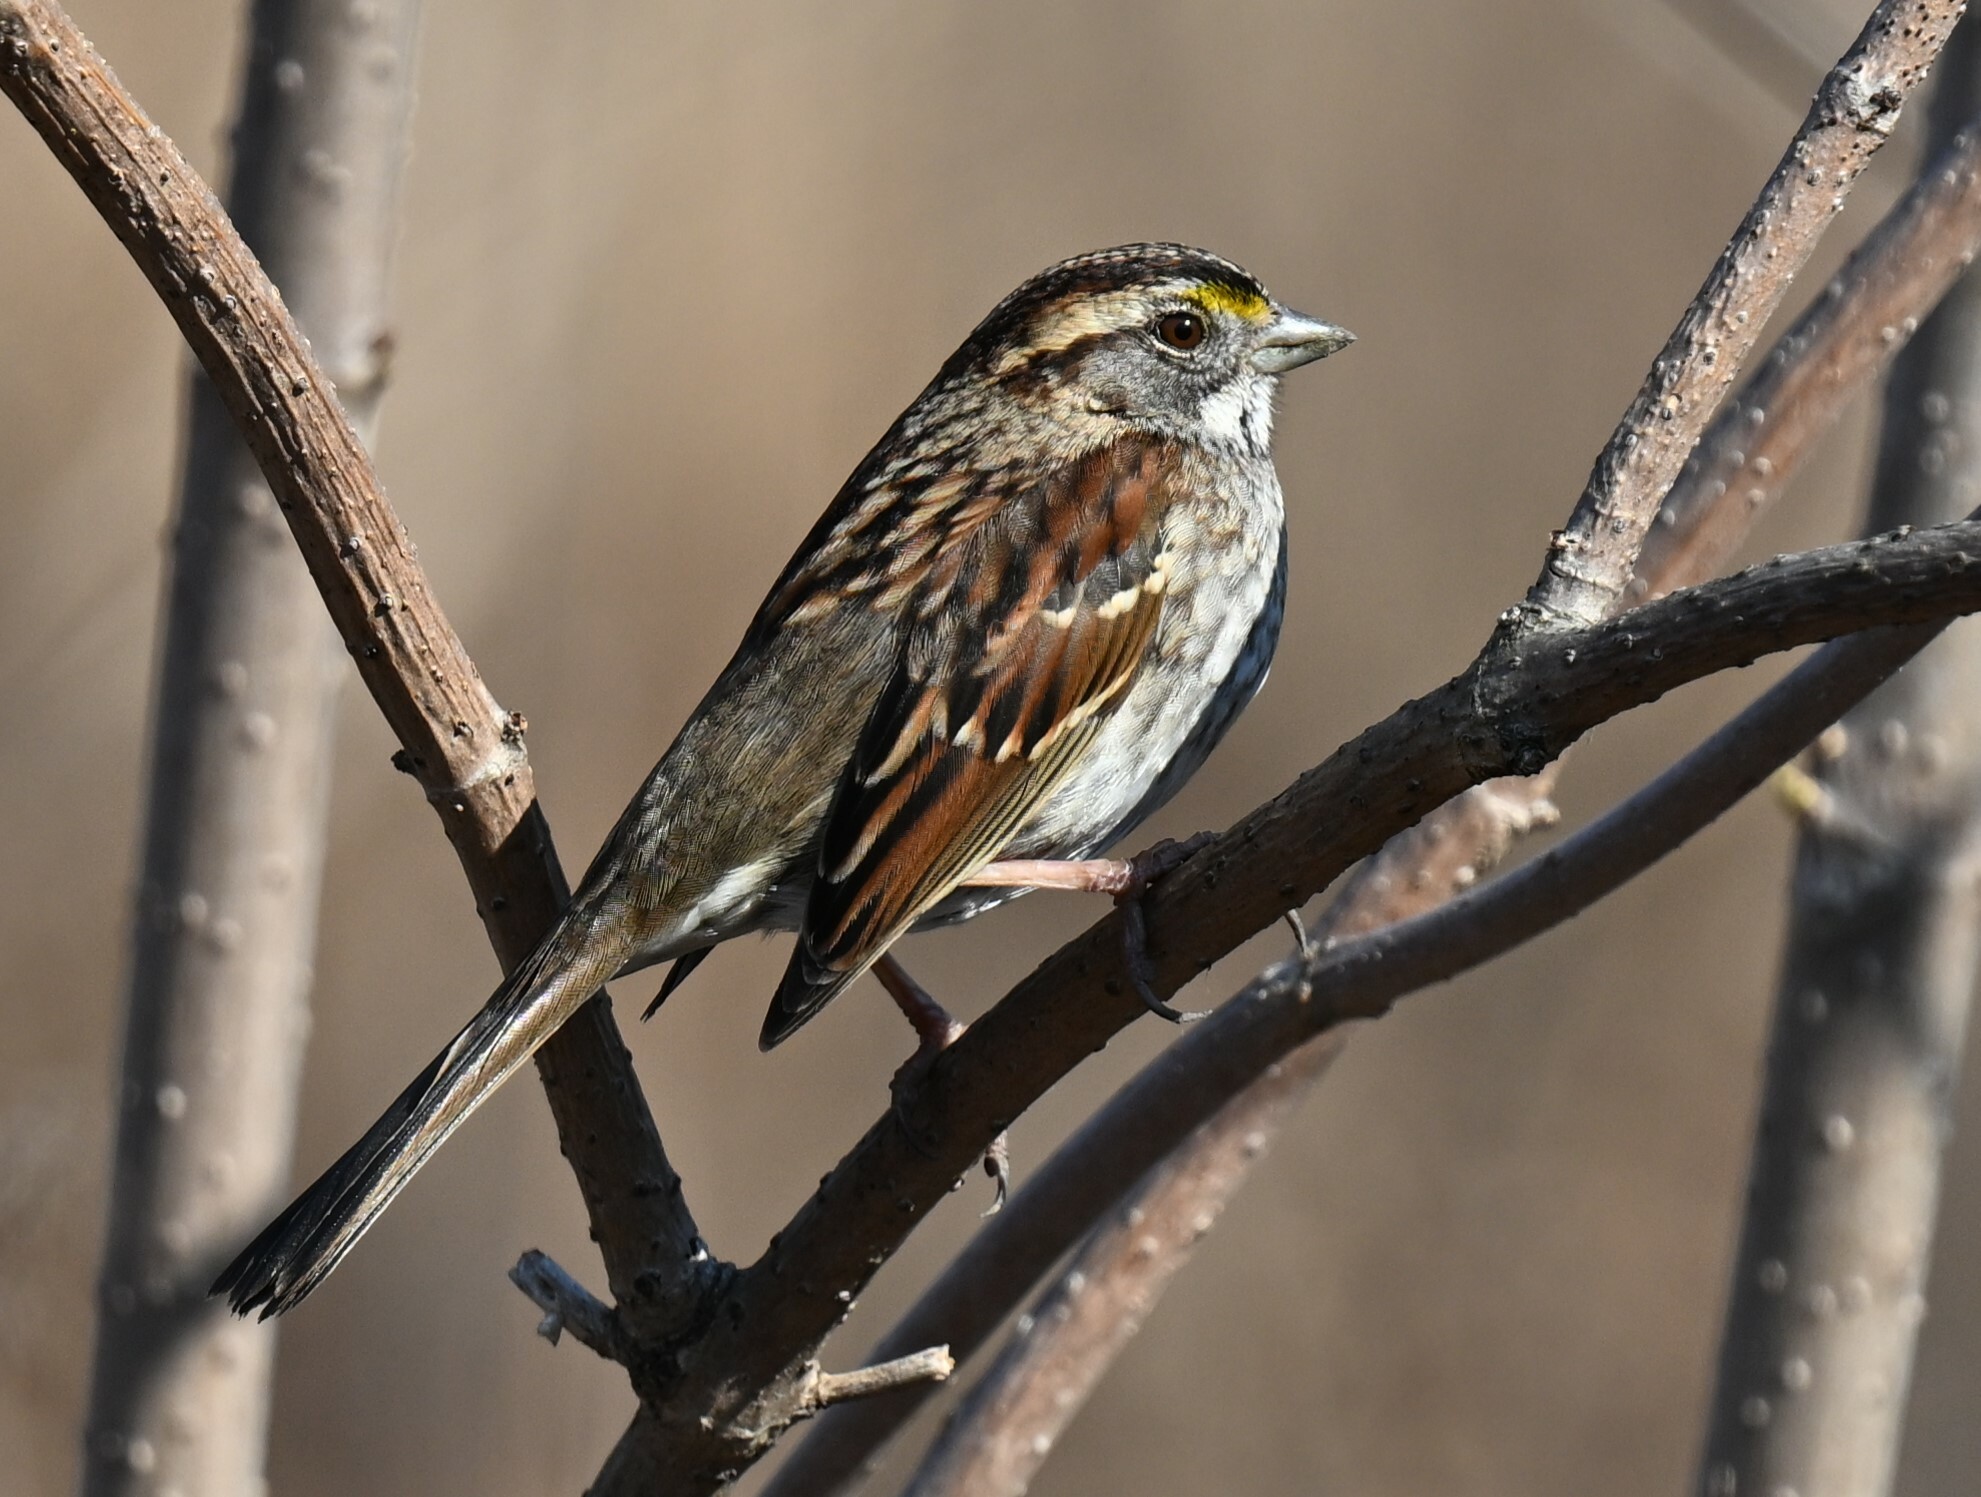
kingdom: Animalia
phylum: Chordata
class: Aves
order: Passeriformes
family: Passerellidae
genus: Zonotrichia
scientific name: Zonotrichia albicollis
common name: White-throated sparrow
